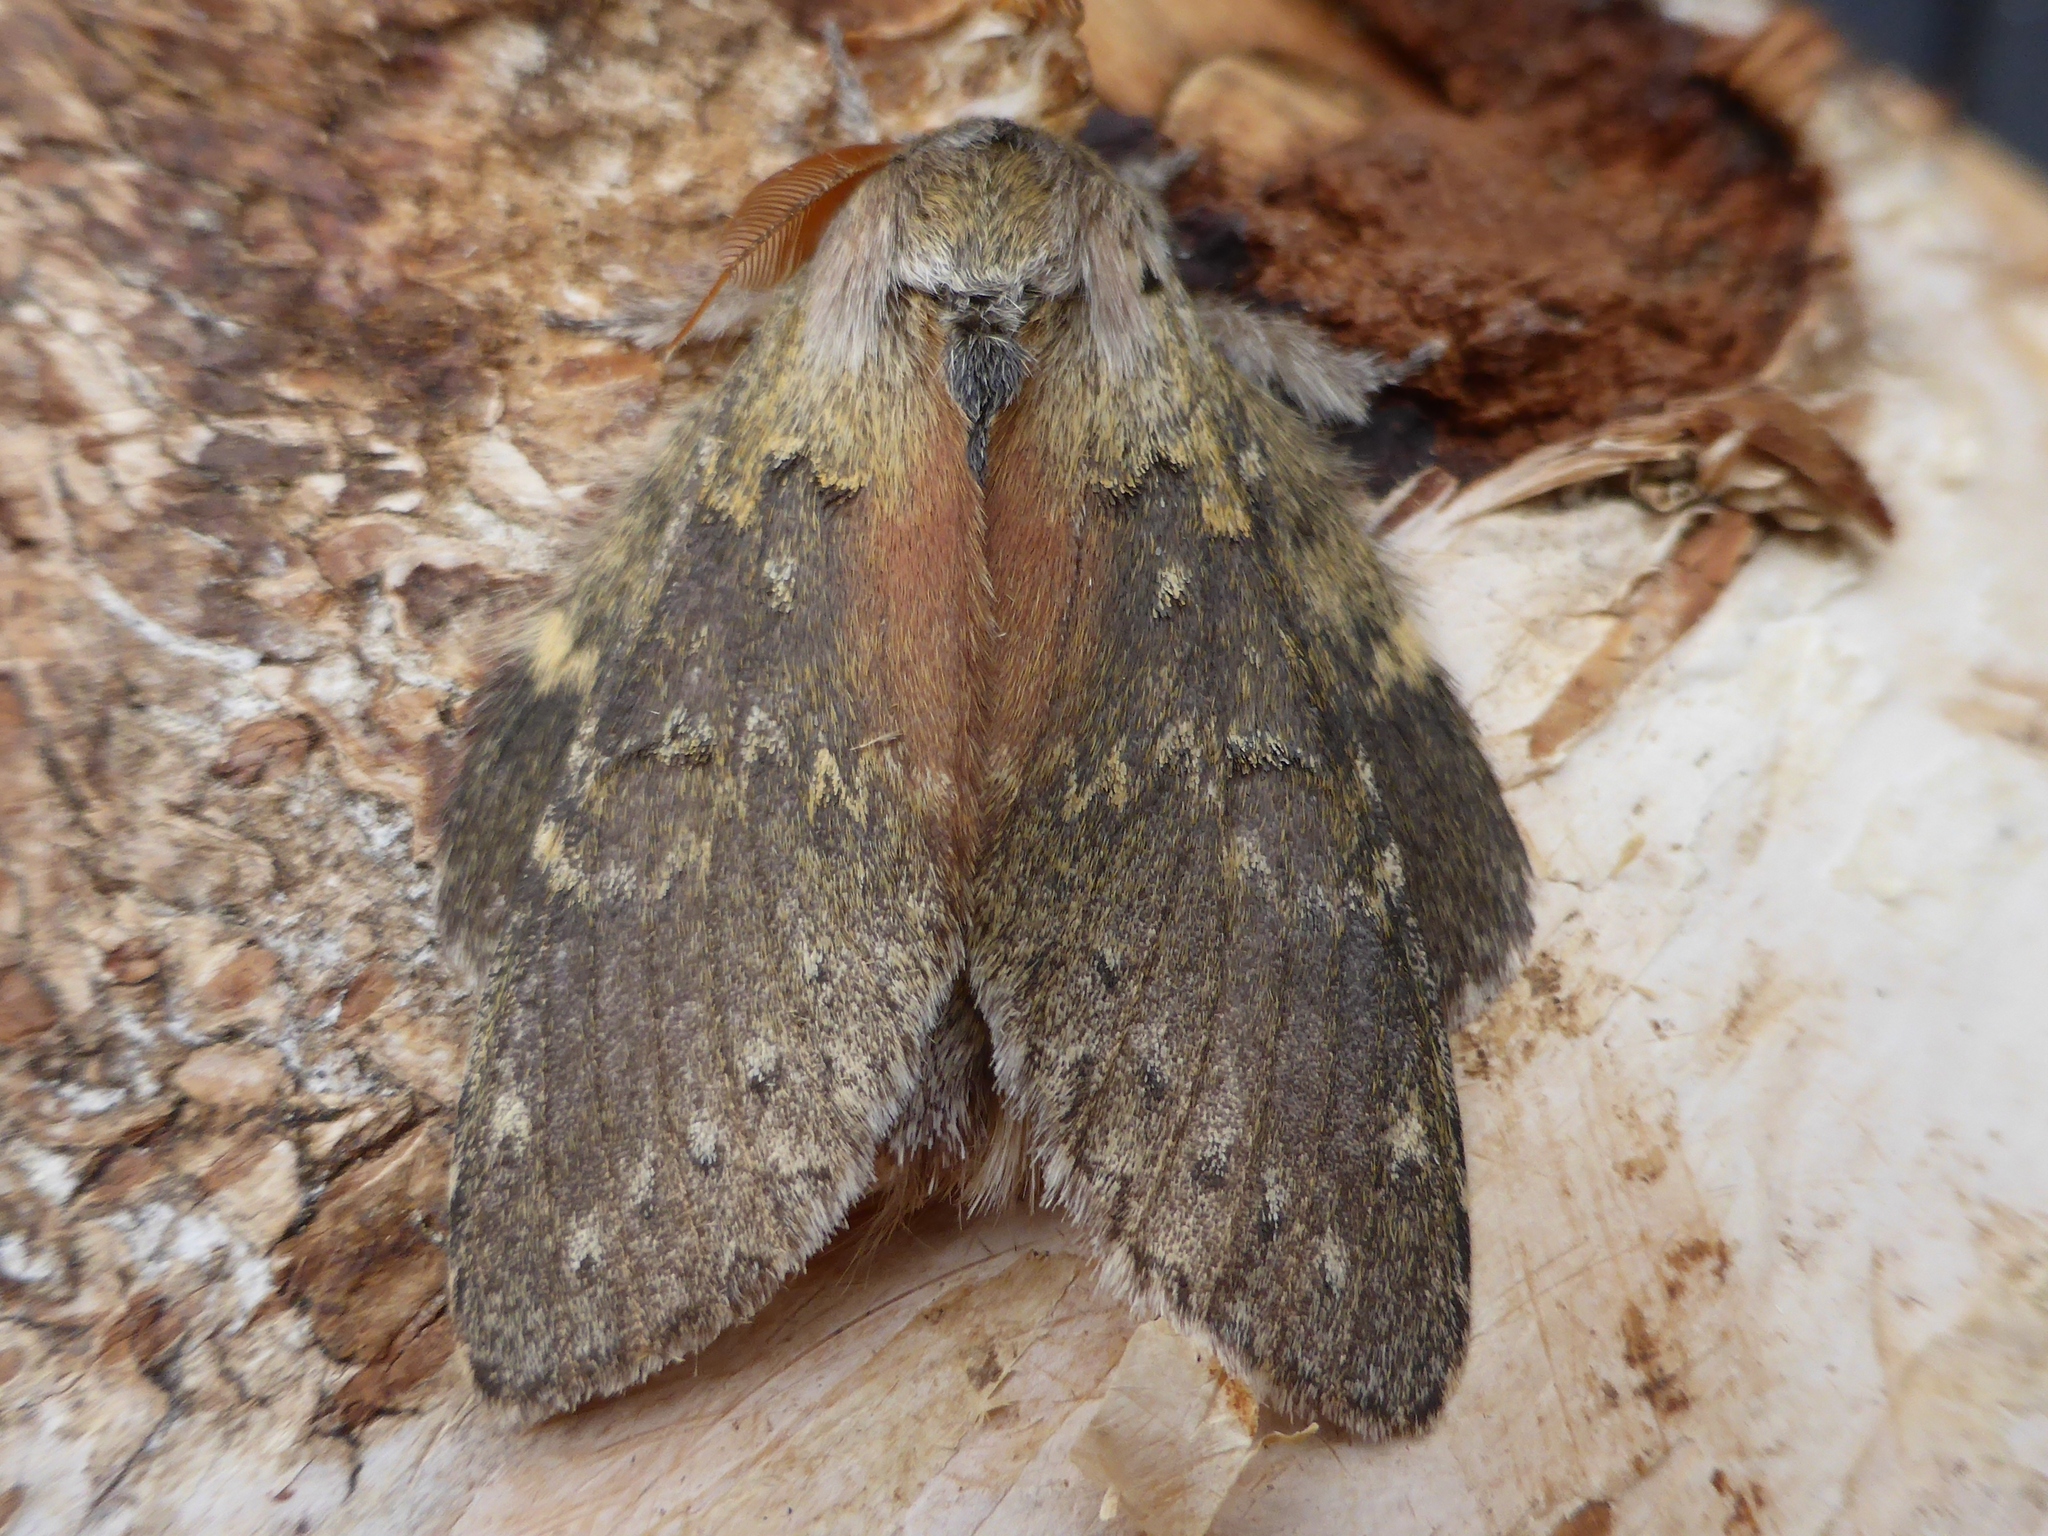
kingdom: Animalia
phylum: Arthropoda
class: Insecta
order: Lepidoptera
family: Notodontidae
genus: Stauropus
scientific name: Stauropus fagi
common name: Lobster moth
